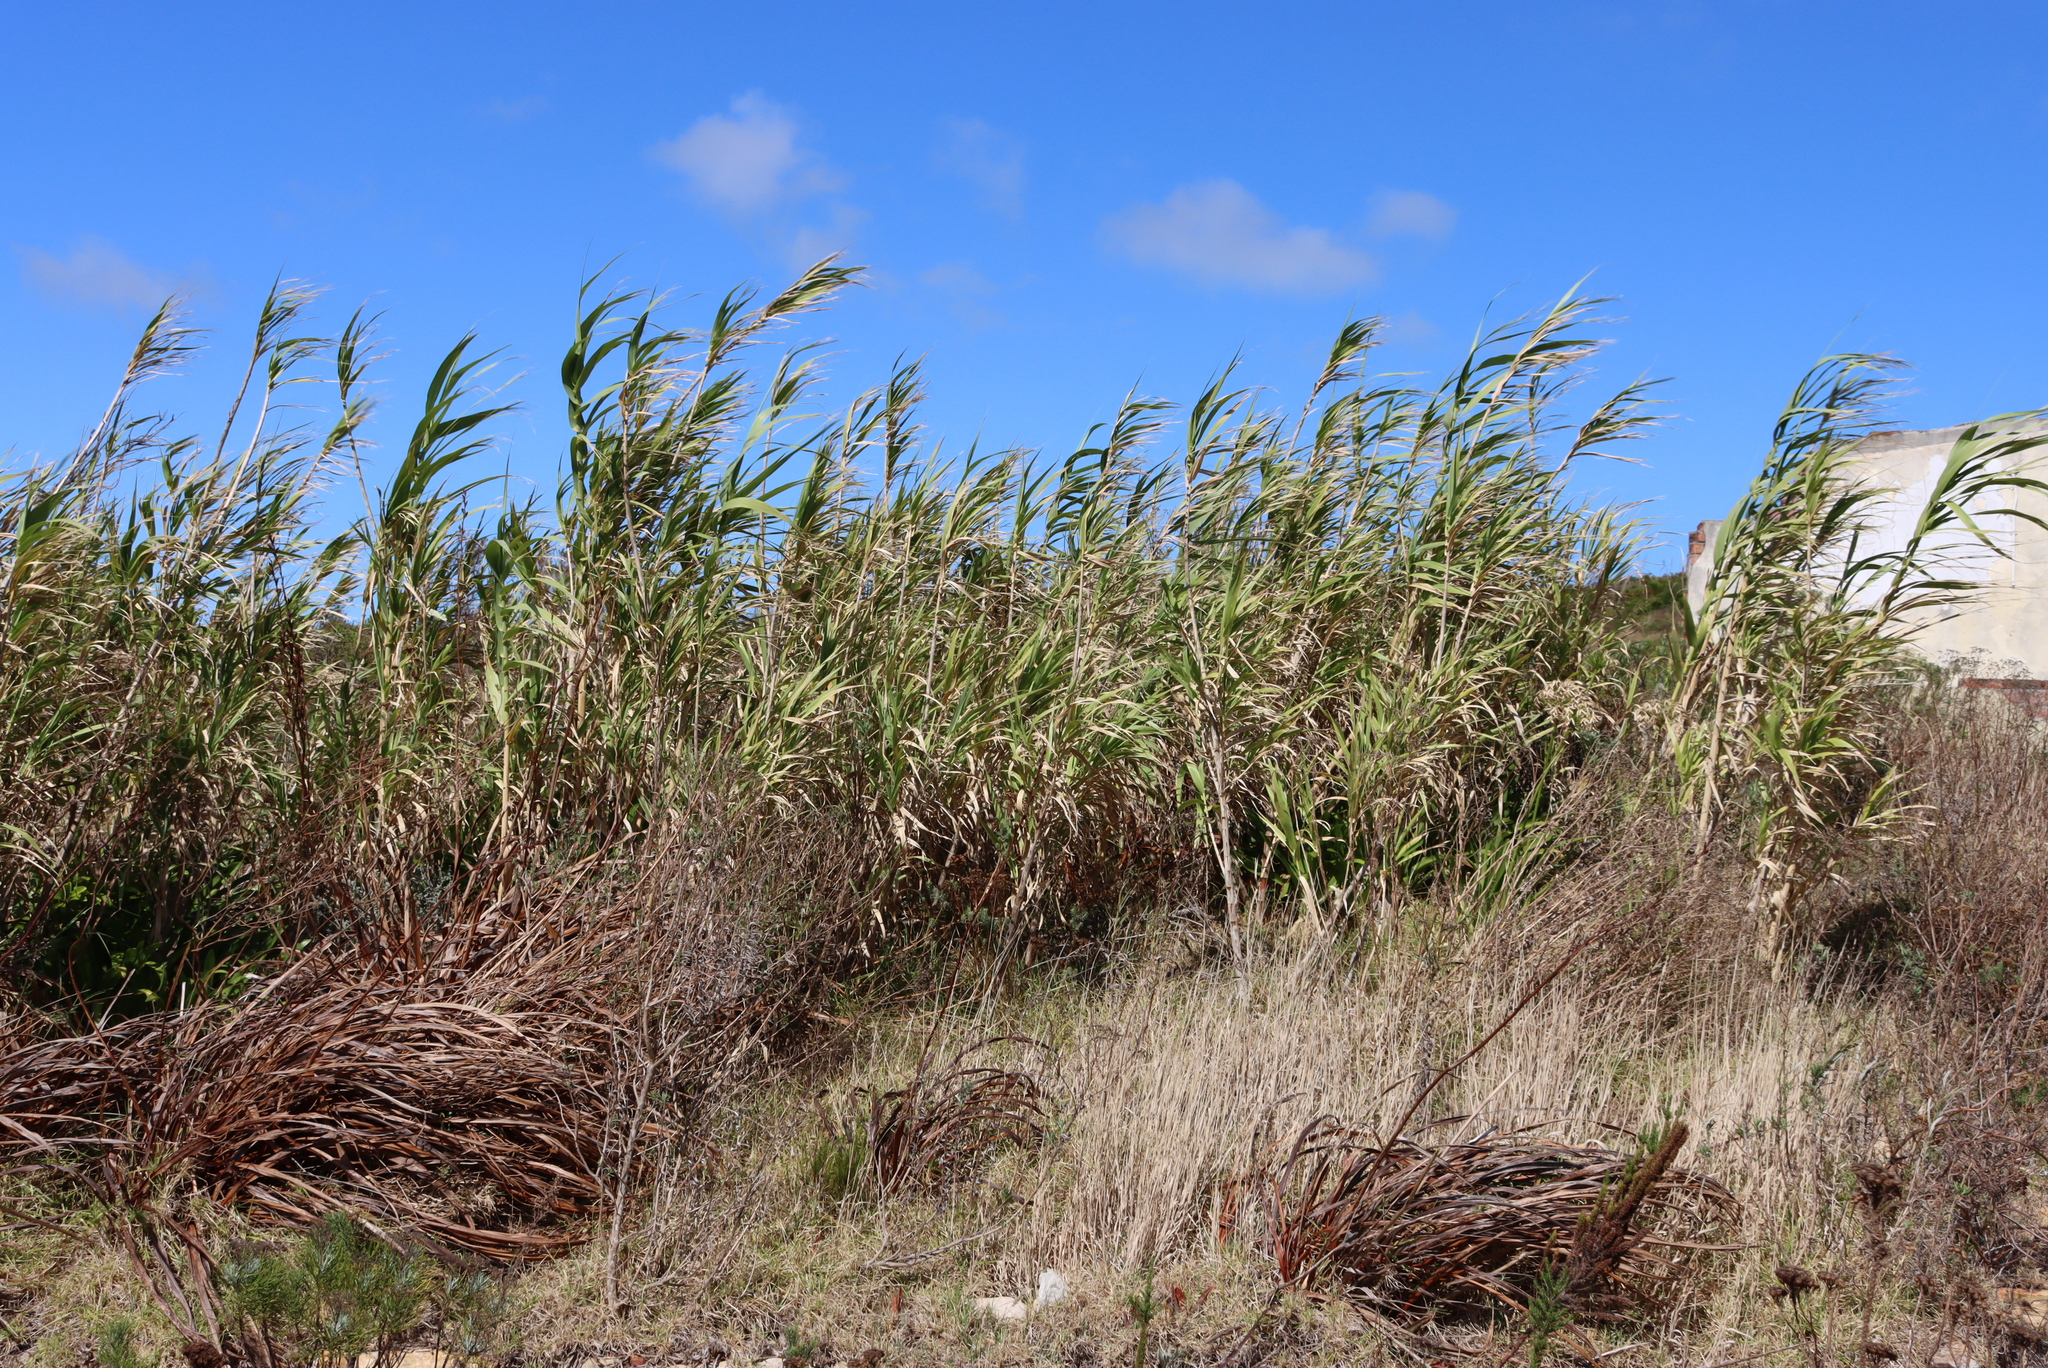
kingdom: Plantae
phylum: Tracheophyta
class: Liliopsida
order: Poales
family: Poaceae
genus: Phragmites
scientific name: Phragmites australis
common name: Common reed
